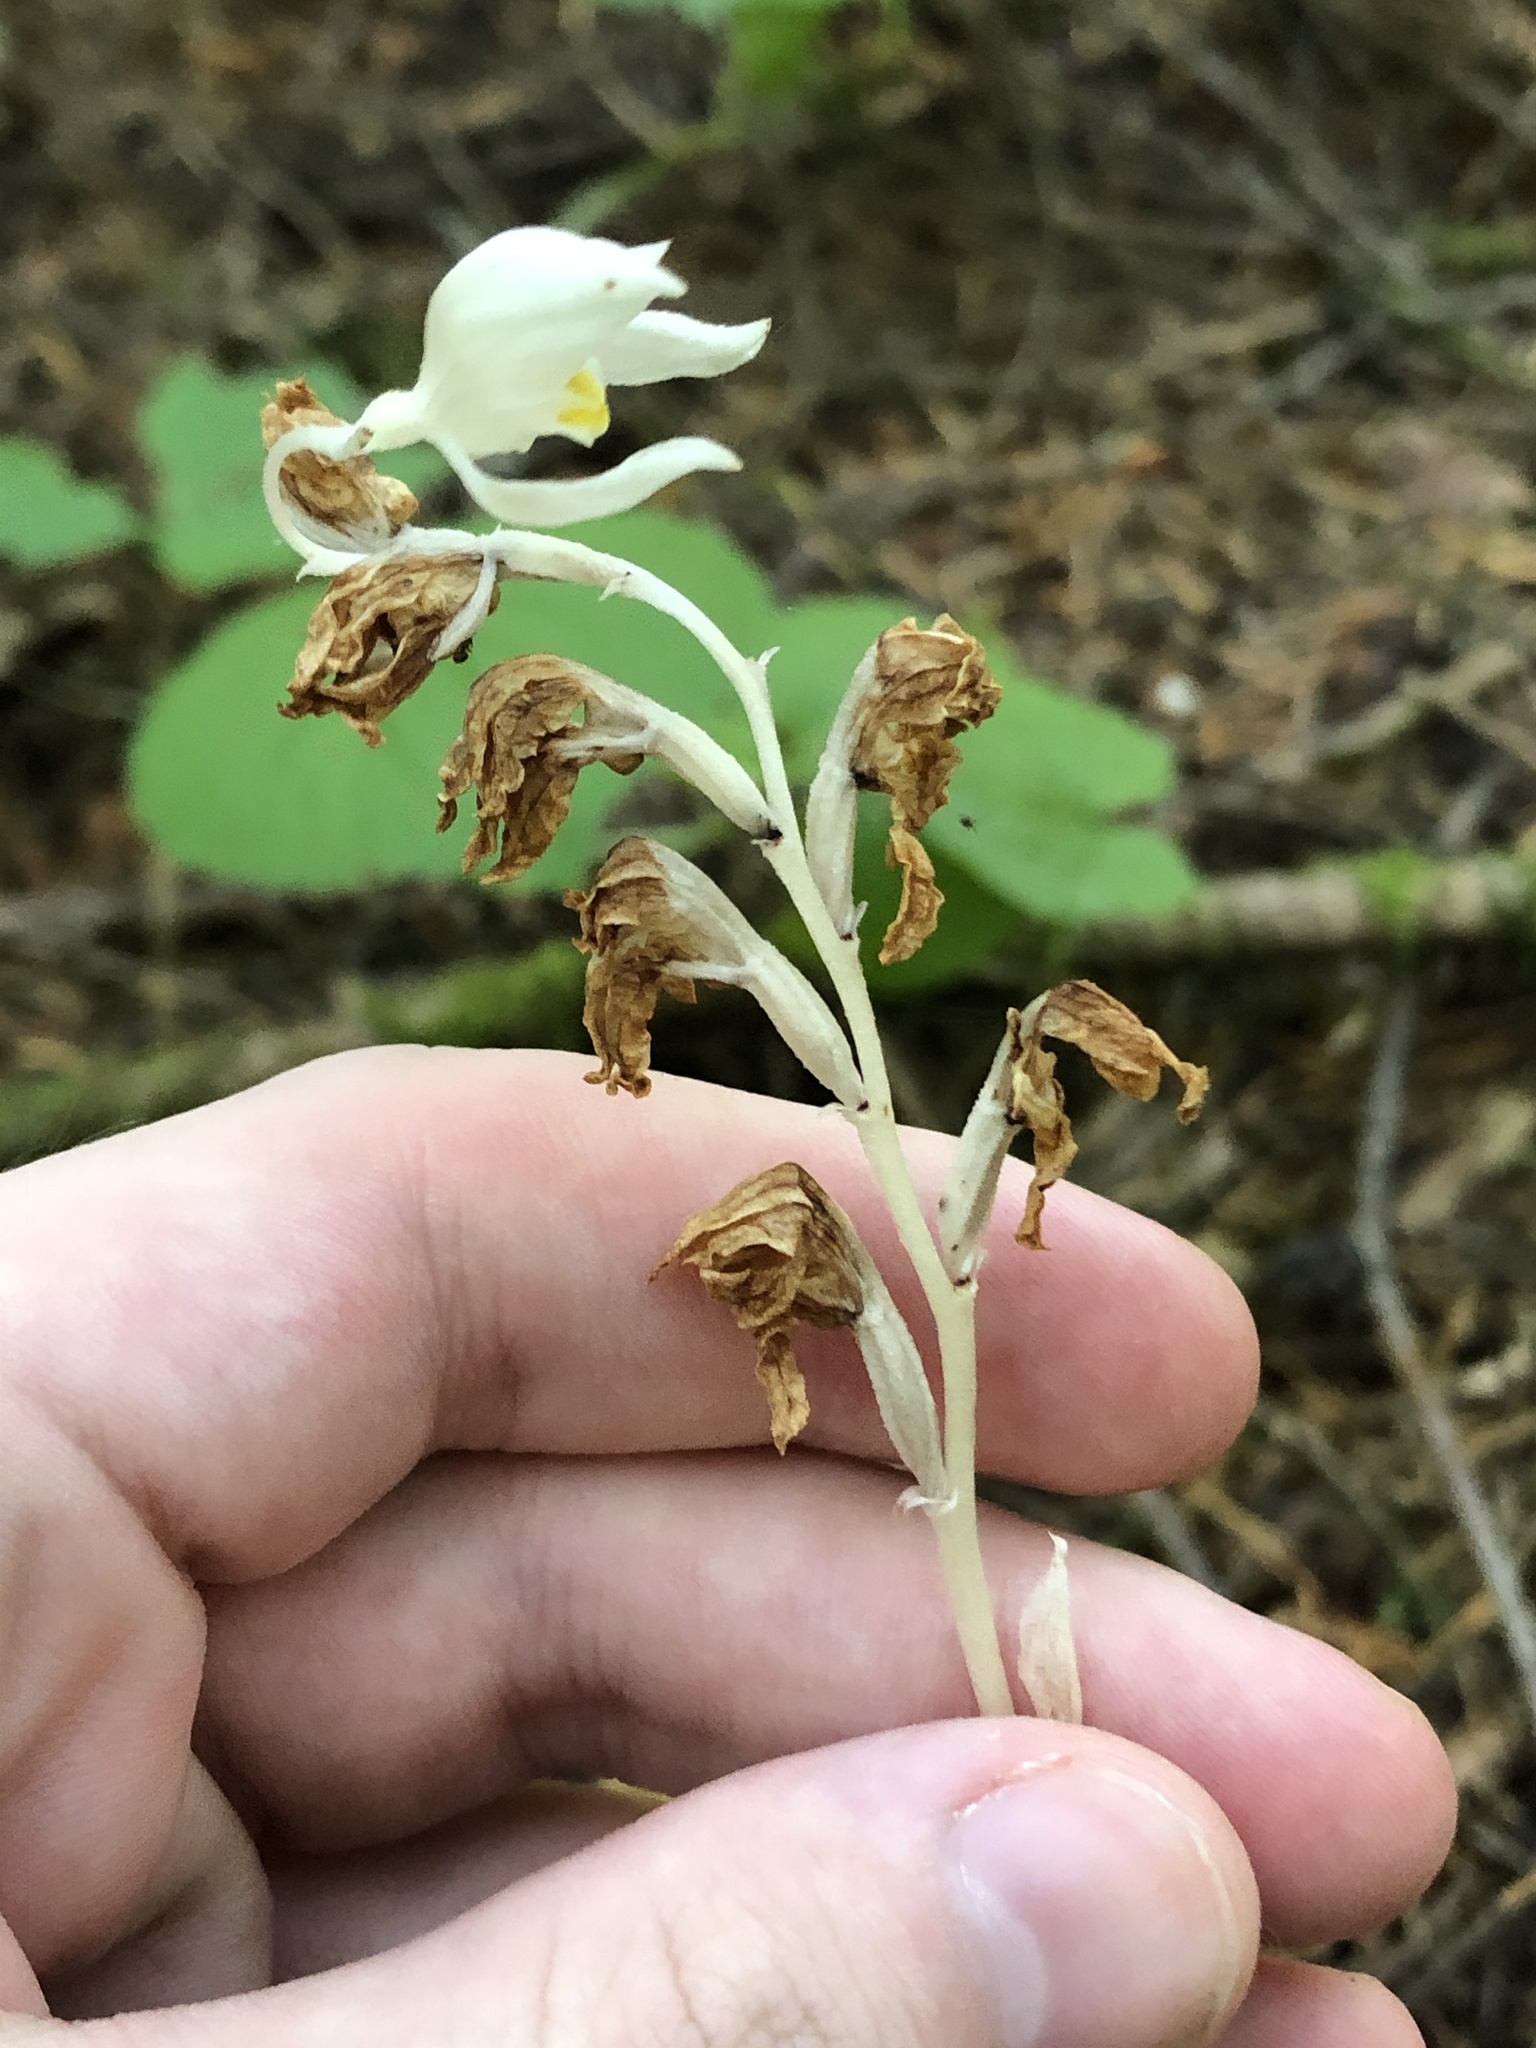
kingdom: Plantae
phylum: Tracheophyta
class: Liliopsida
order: Asparagales
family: Orchidaceae
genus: Cephalanthera
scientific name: Cephalanthera austiniae
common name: Phantom orchid
